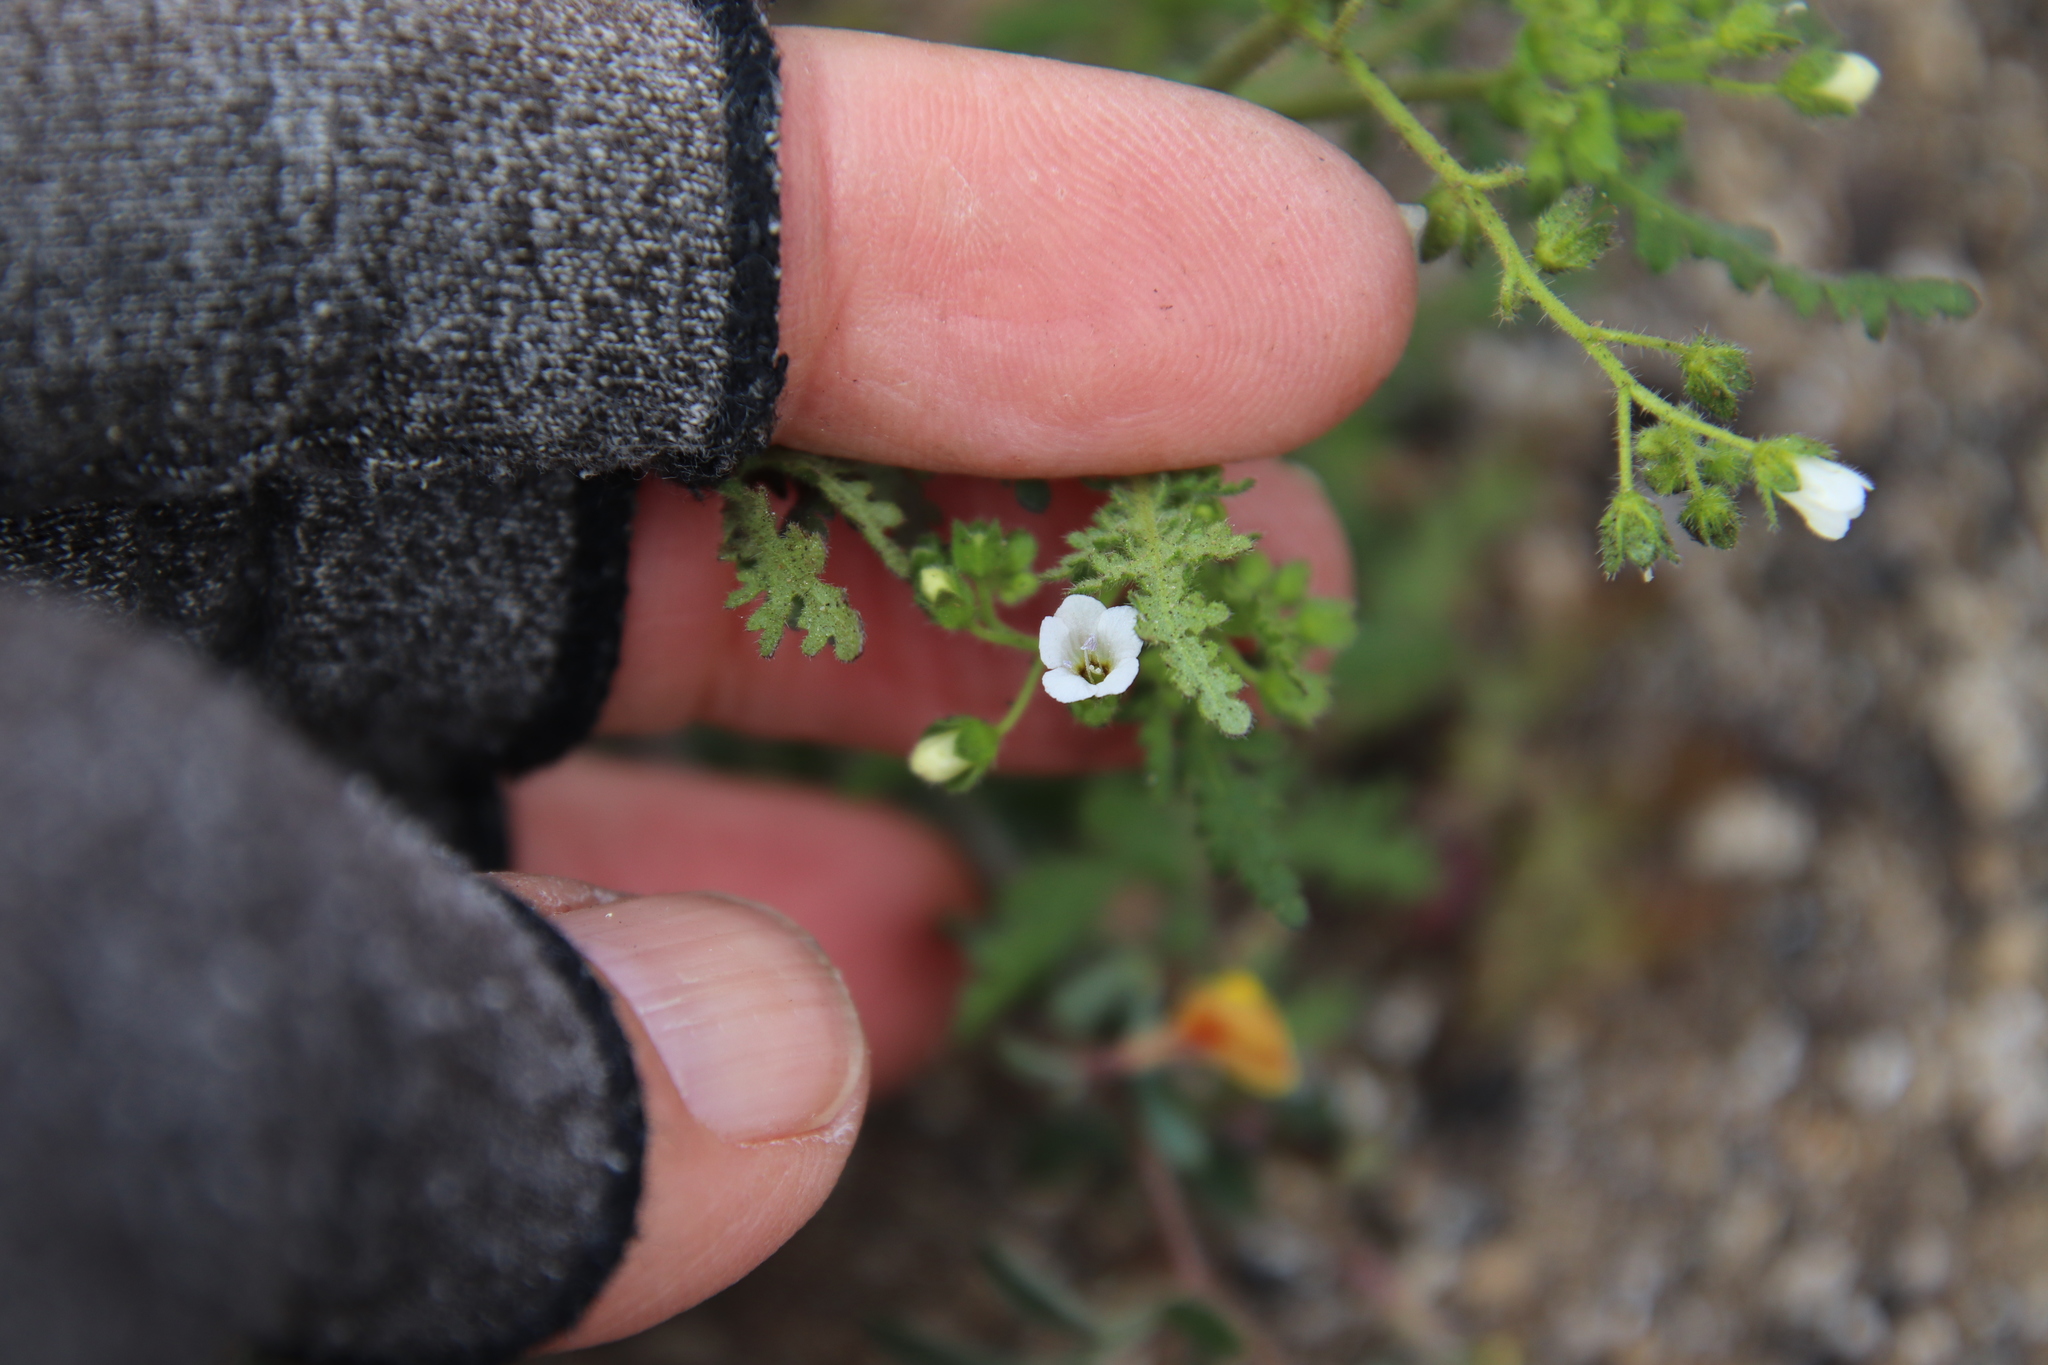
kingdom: Plantae
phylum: Tracheophyta
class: Magnoliopsida
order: Boraginales
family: Hydrophyllaceae
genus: Eucrypta
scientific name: Eucrypta chrysanthemifolia
